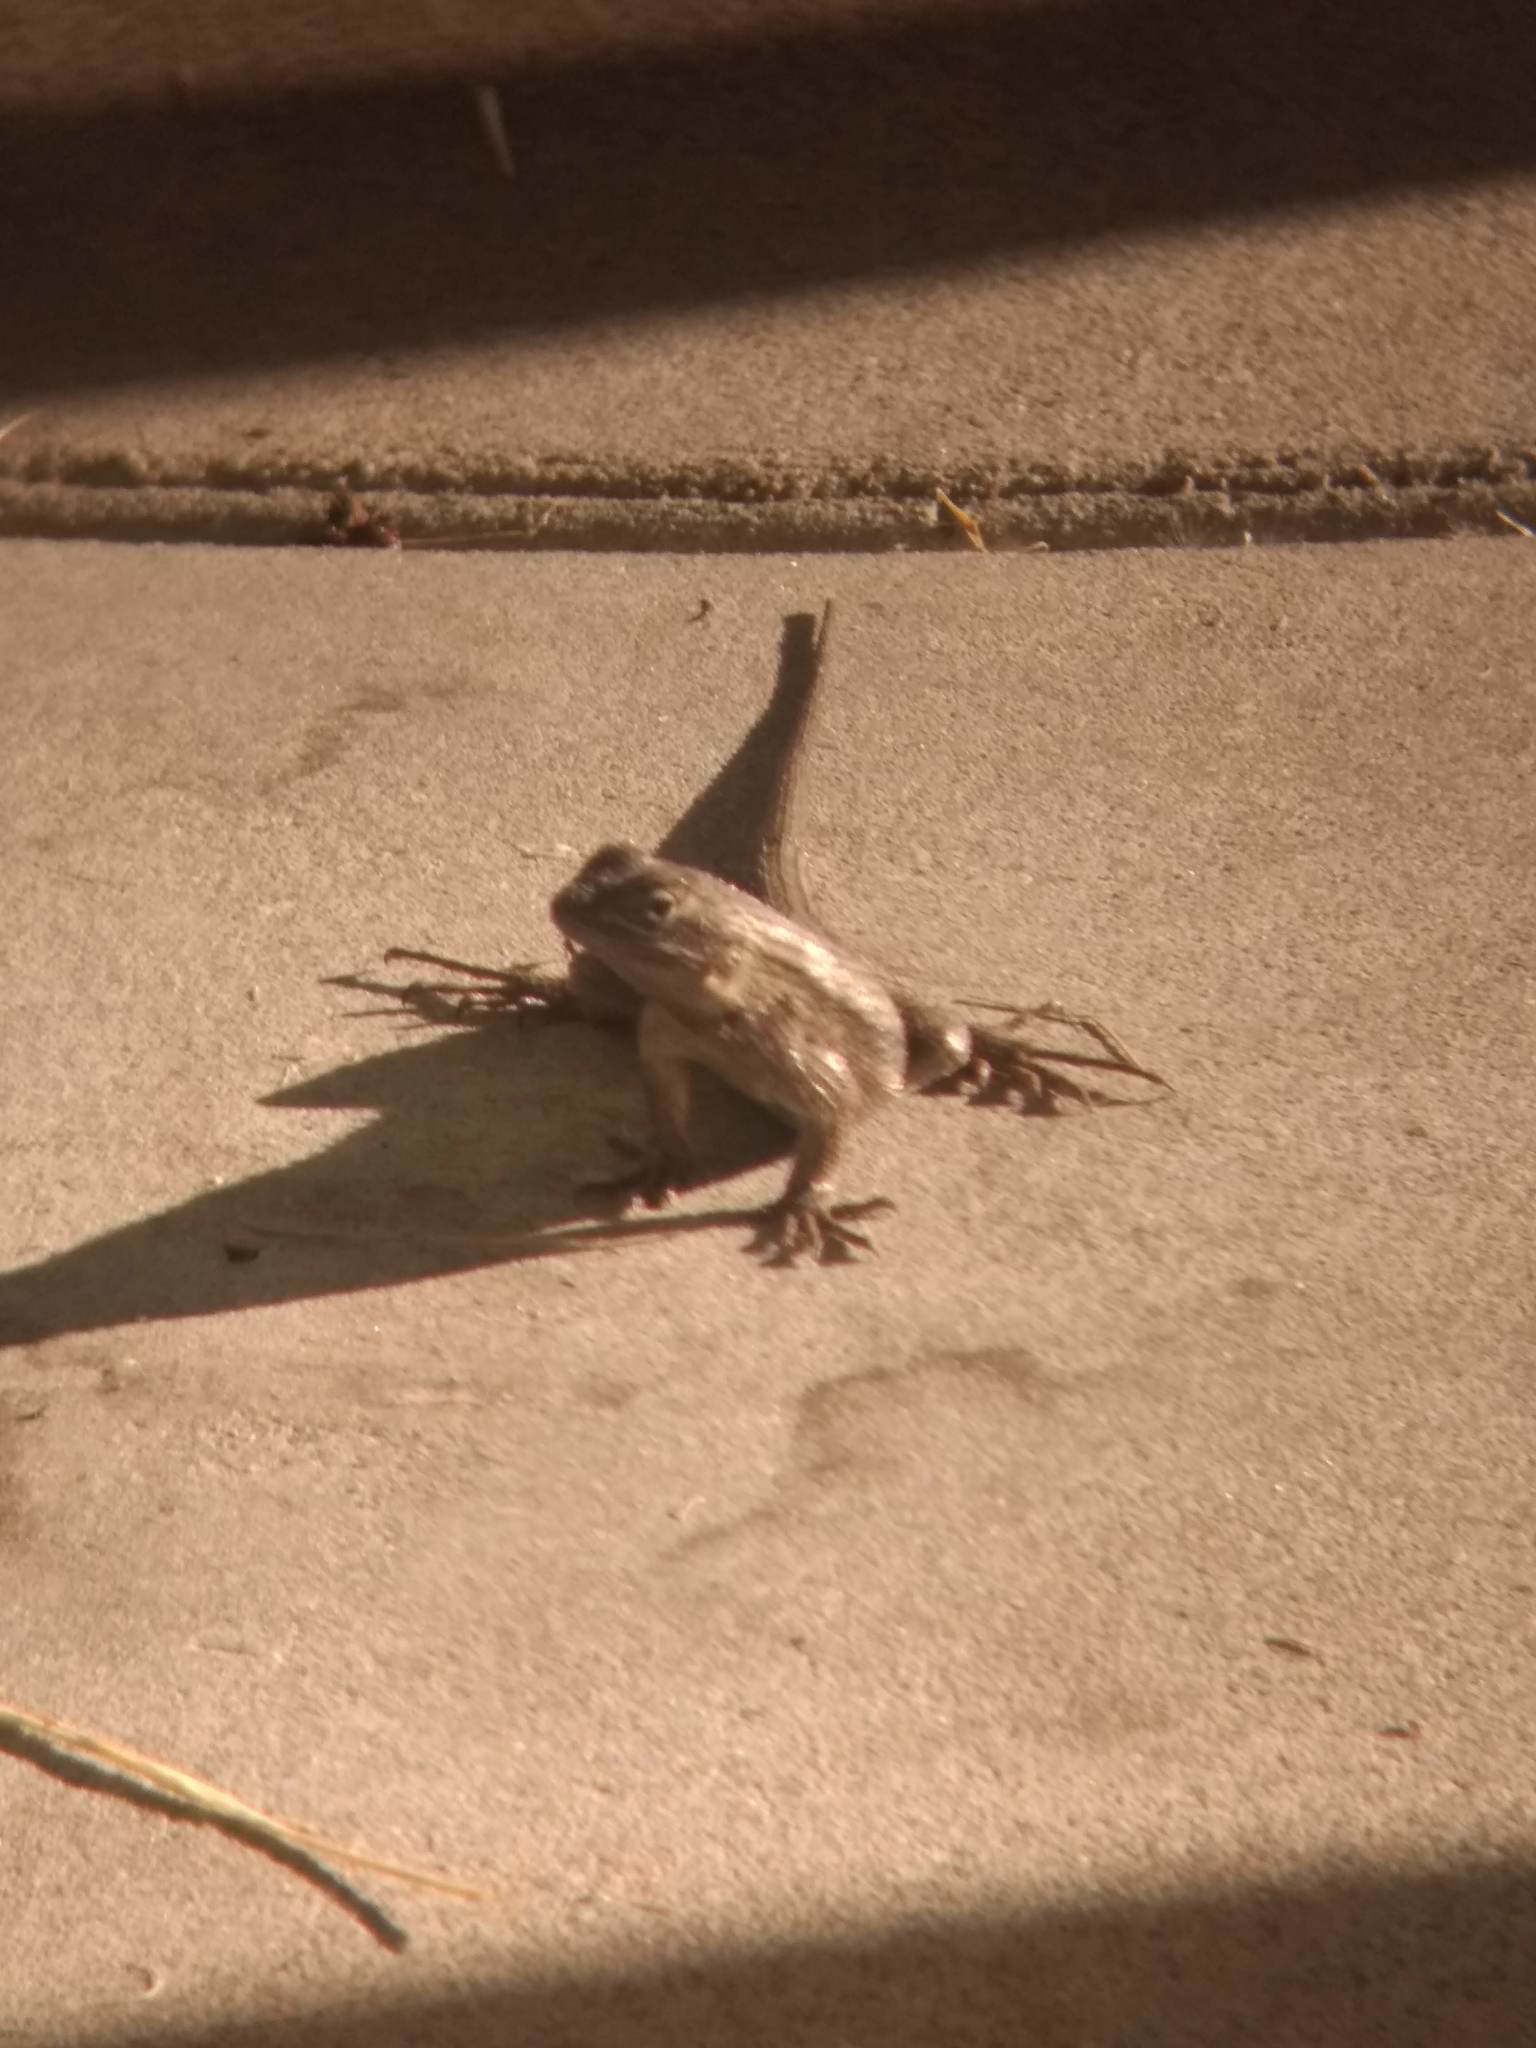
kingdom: Animalia
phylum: Chordata
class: Squamata
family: Phrynosomatidae
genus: Sceloporus
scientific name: Sceloporus occidentalis
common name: Western fence lizard
